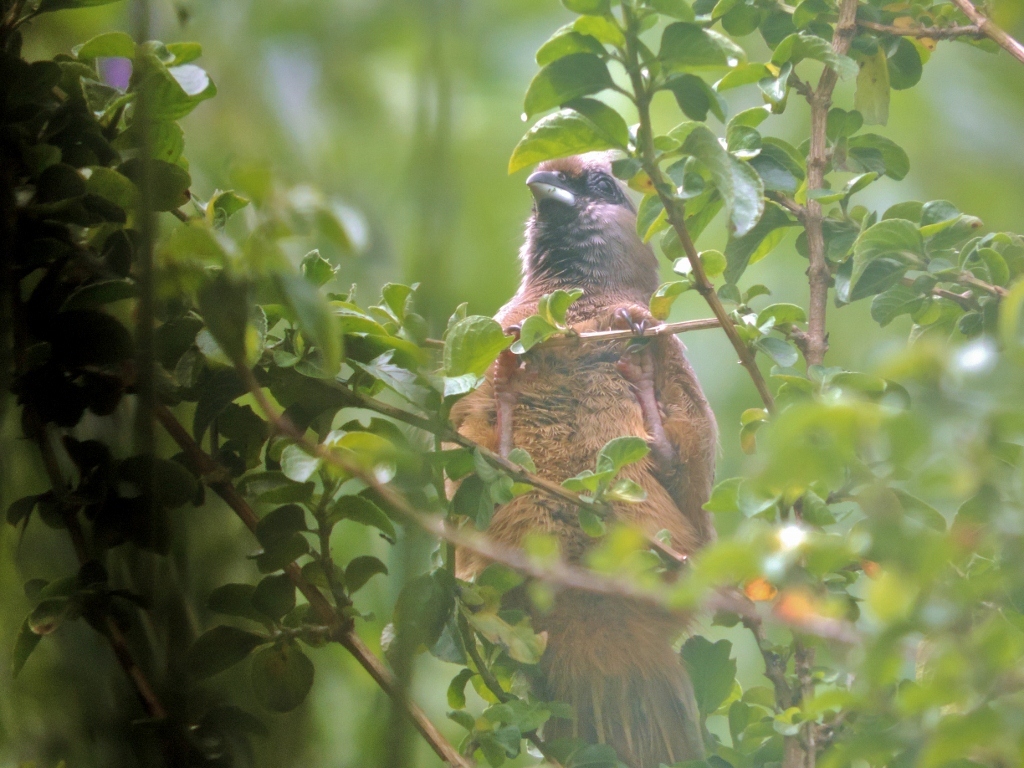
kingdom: Animalia
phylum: Chordata
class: Aves
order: Coliiformes
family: Coliidae
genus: Colius
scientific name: Colius striatus
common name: Speckled mousebird
